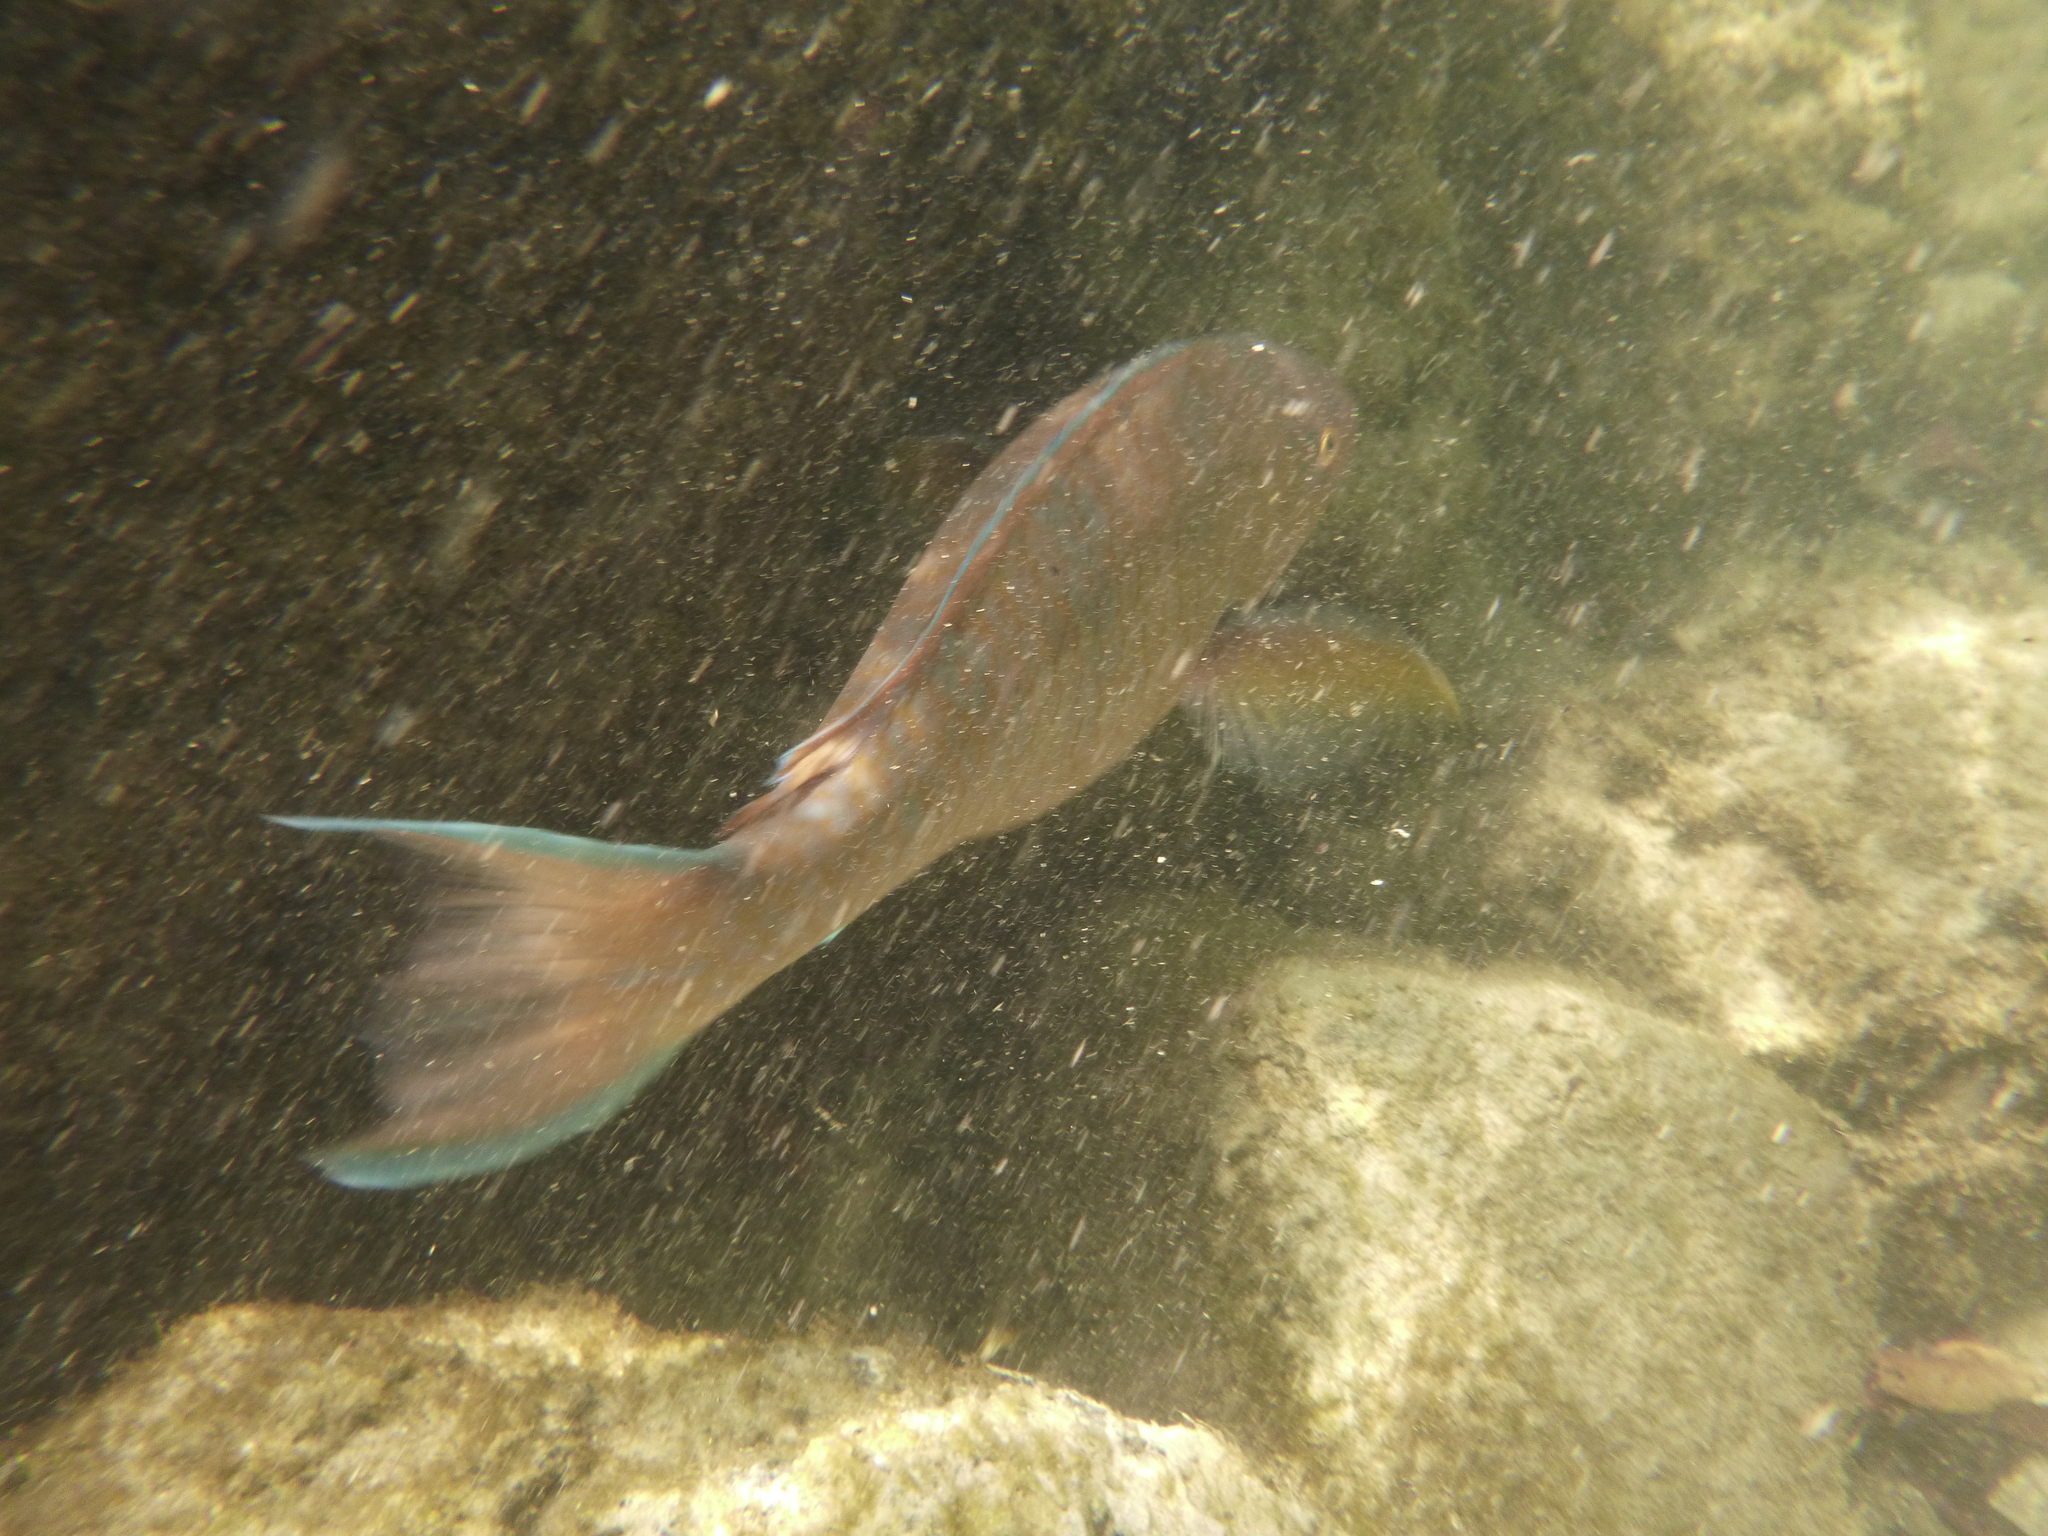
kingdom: Animalia
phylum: Chordata
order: Perciformes
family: Scaridae
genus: Scarus
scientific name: Scarus ghobban
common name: Blue-barred parrotfish
